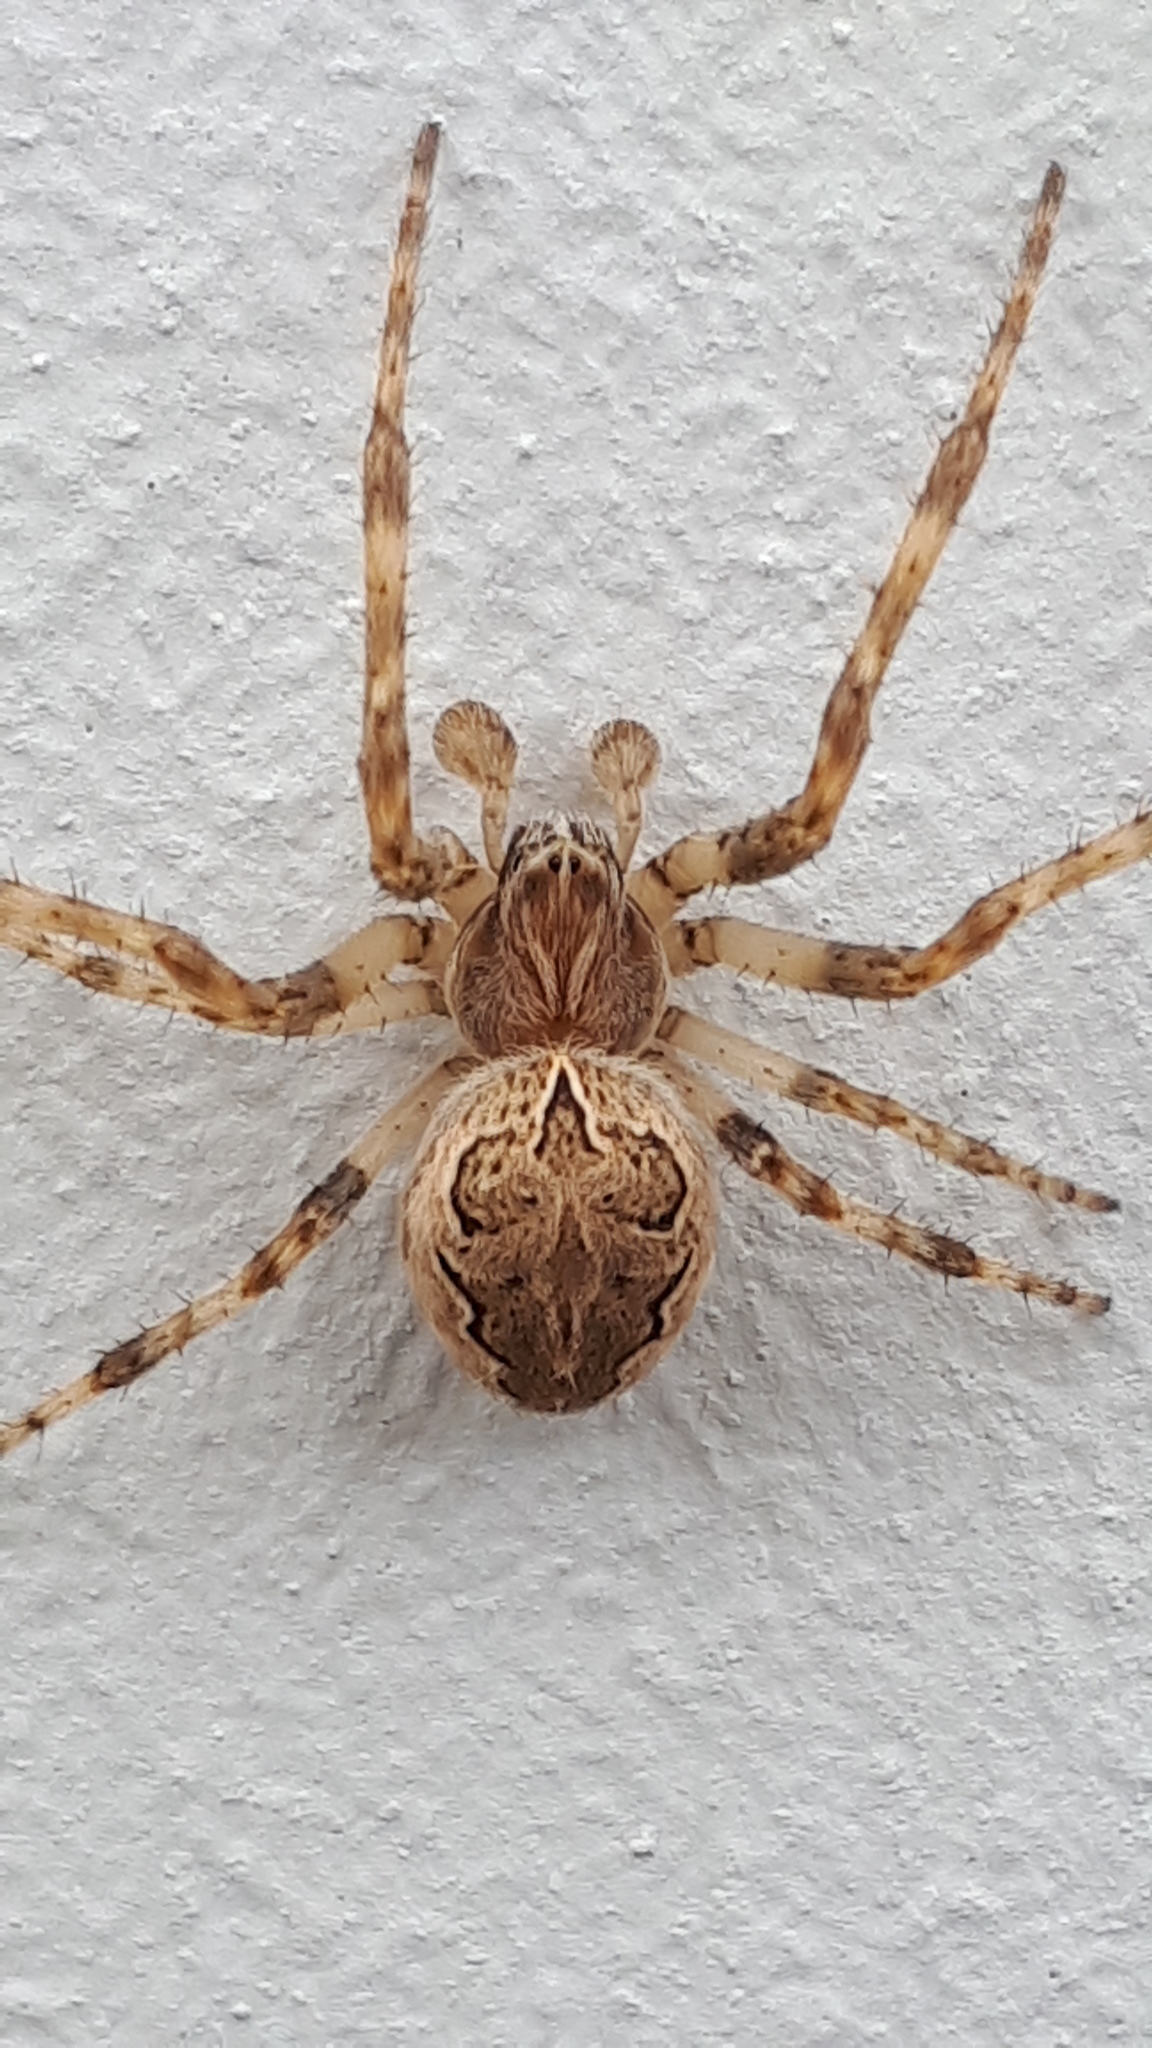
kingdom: Animalia
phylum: Arthropoda
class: Arachnida
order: Araneae
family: Araneidae
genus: Larinioides
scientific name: Larinioides sclopetarius
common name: Bridge orbweaver
